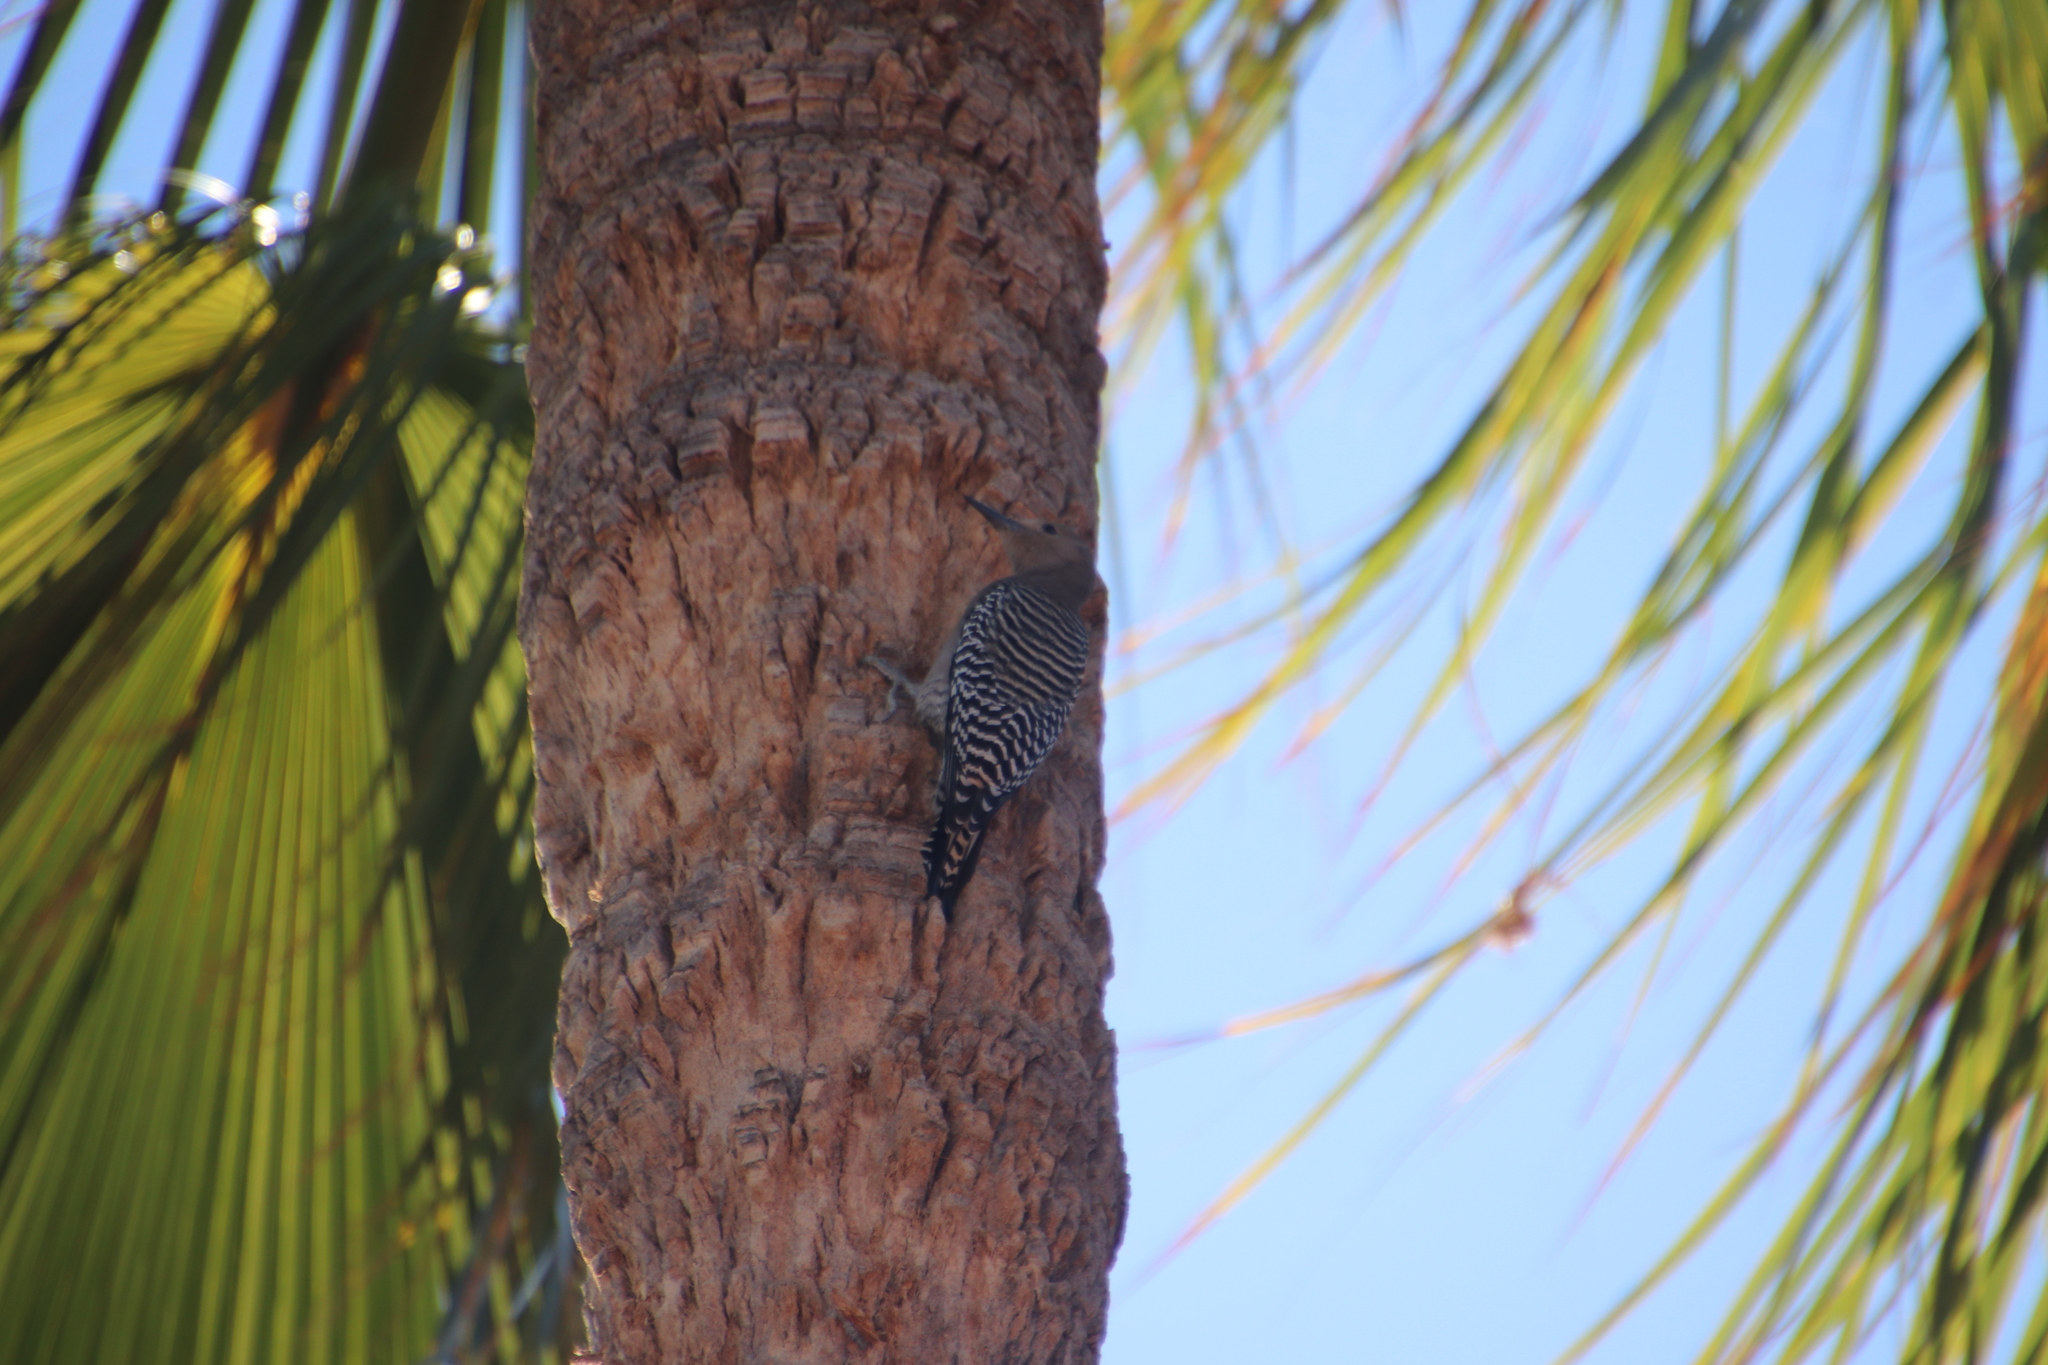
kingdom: Animalia
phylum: Chordata
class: Aves
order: Piciformes
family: Picidae
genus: Melanerpes
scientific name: Melanerpes uropygialis
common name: Gila woodpecker
